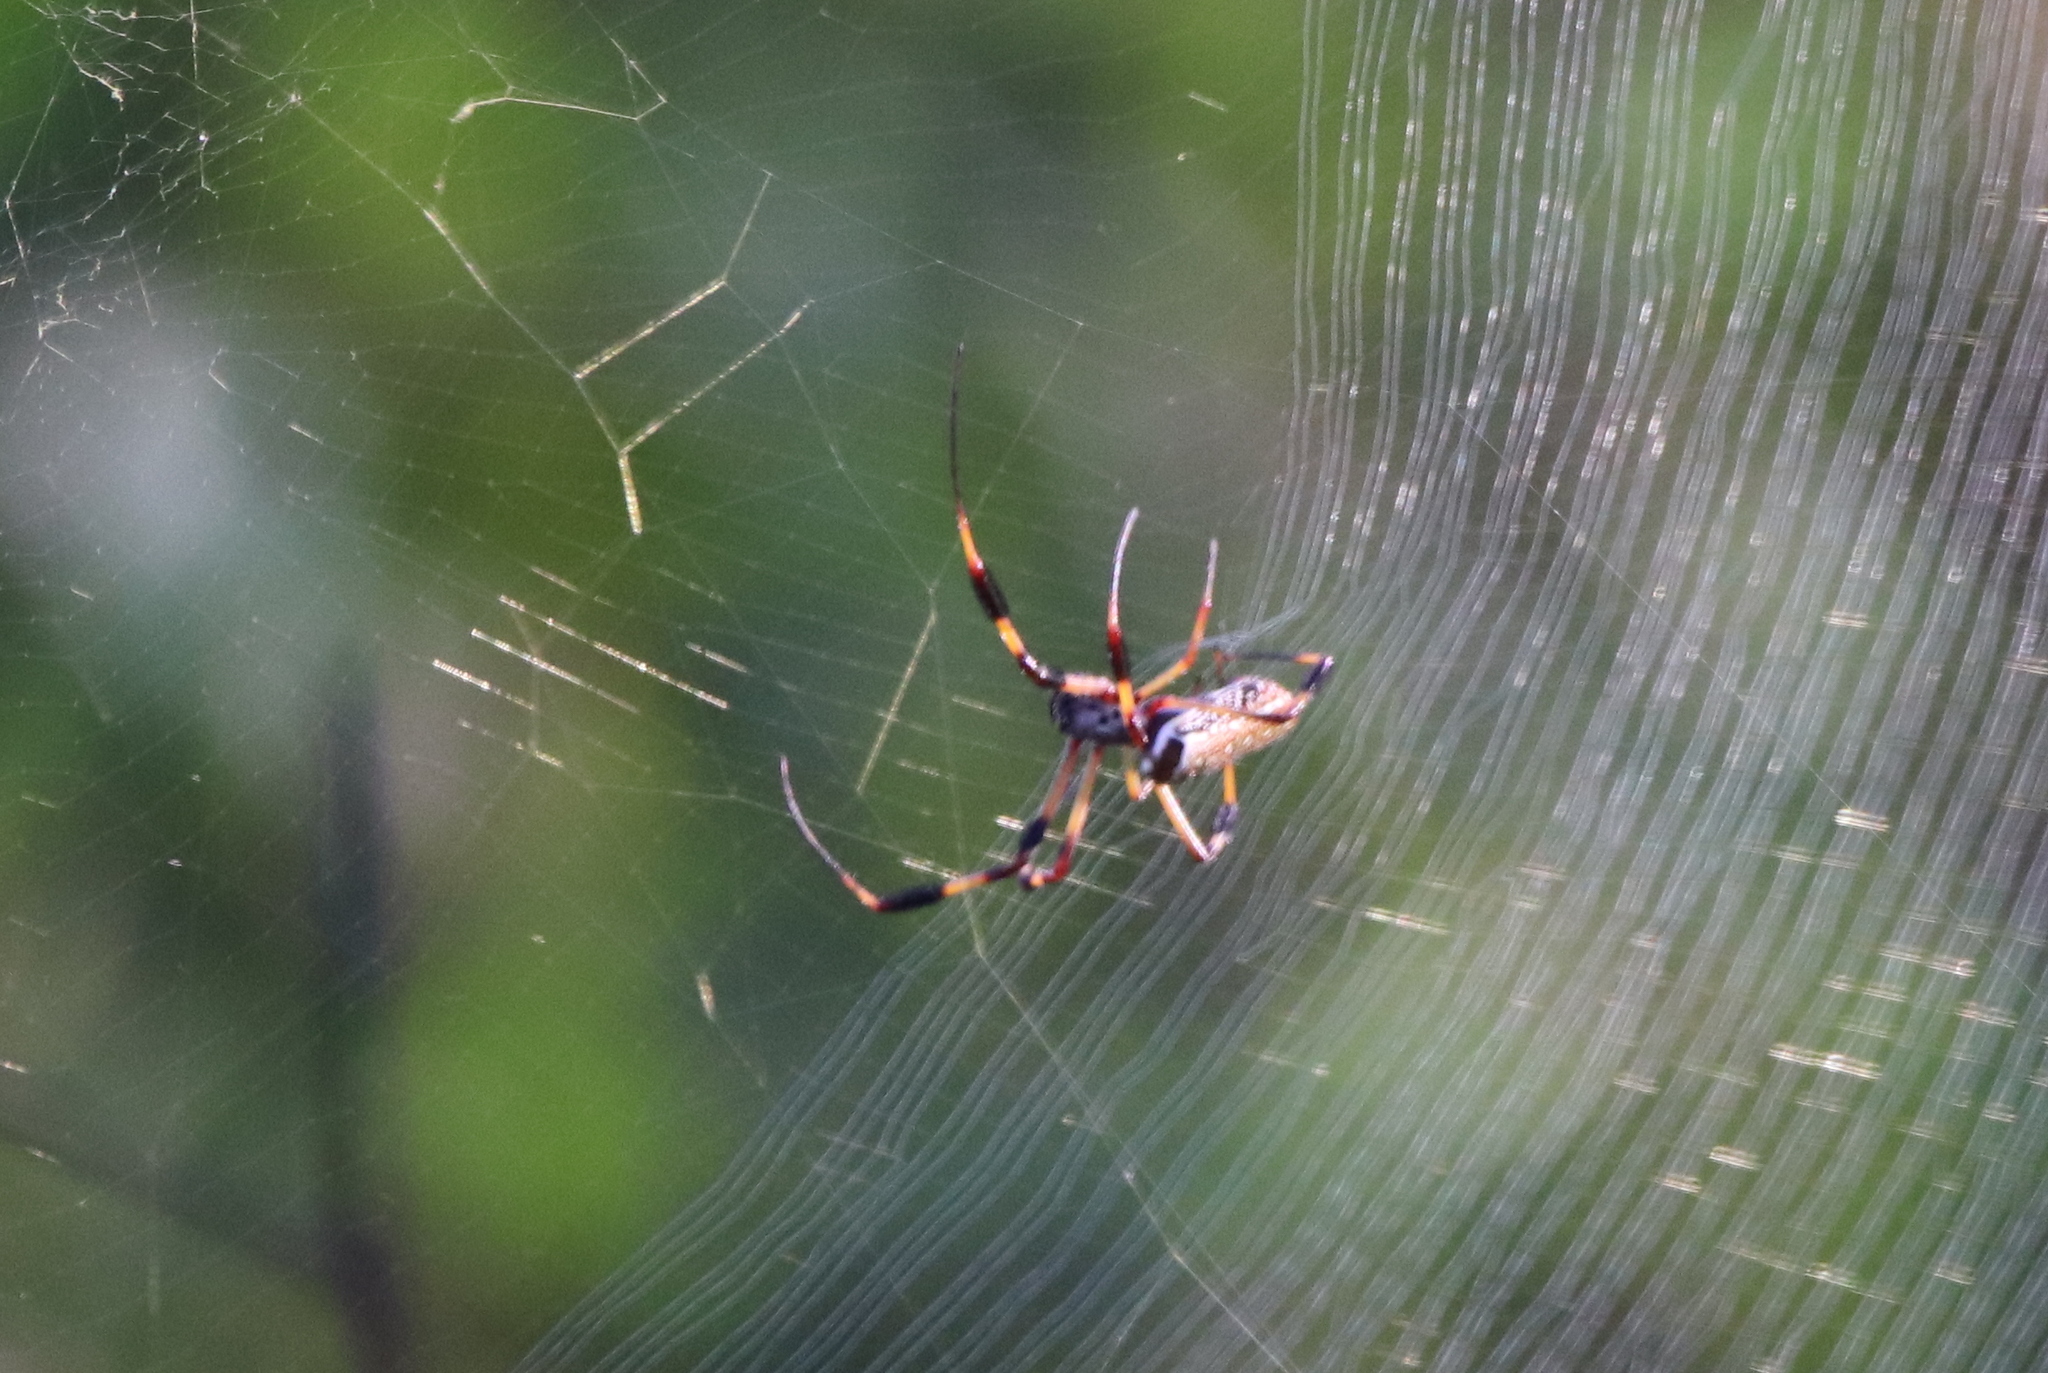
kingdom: Animalia
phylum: Arthropoda
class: Arachnida
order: Araneae
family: Araneidae
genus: Trichonephila
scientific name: Trichonephila clavipes
